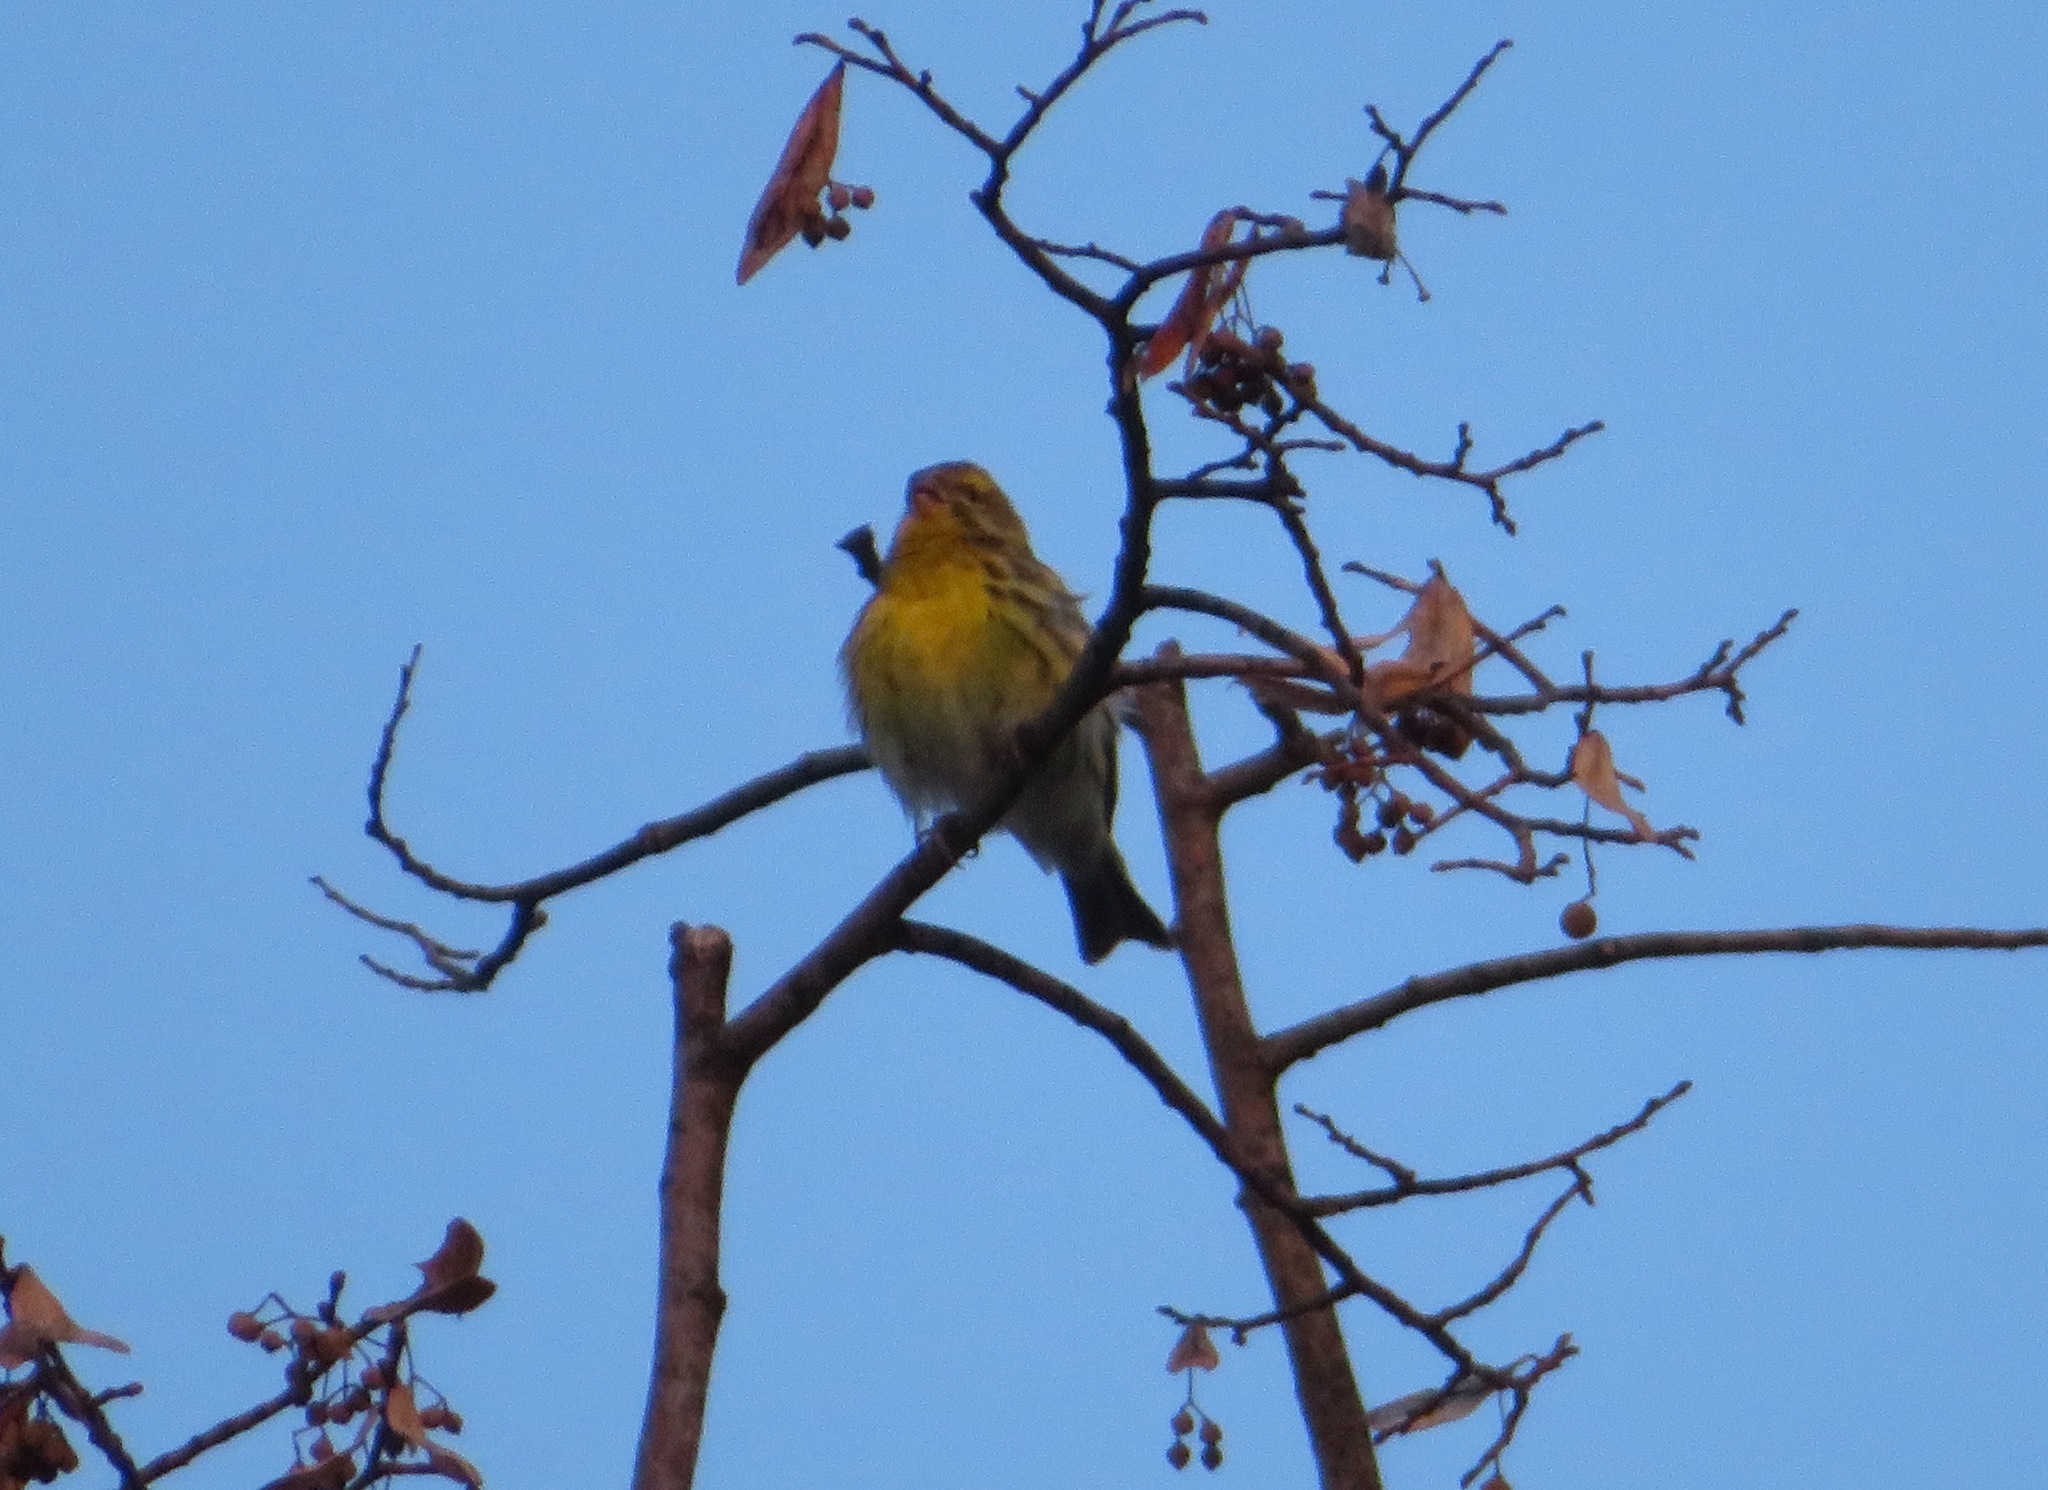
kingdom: Animalia
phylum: Chordata
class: Aves
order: Passeriformes
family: Fringillidae
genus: Serinus
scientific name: Serinus serinus
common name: European serin
